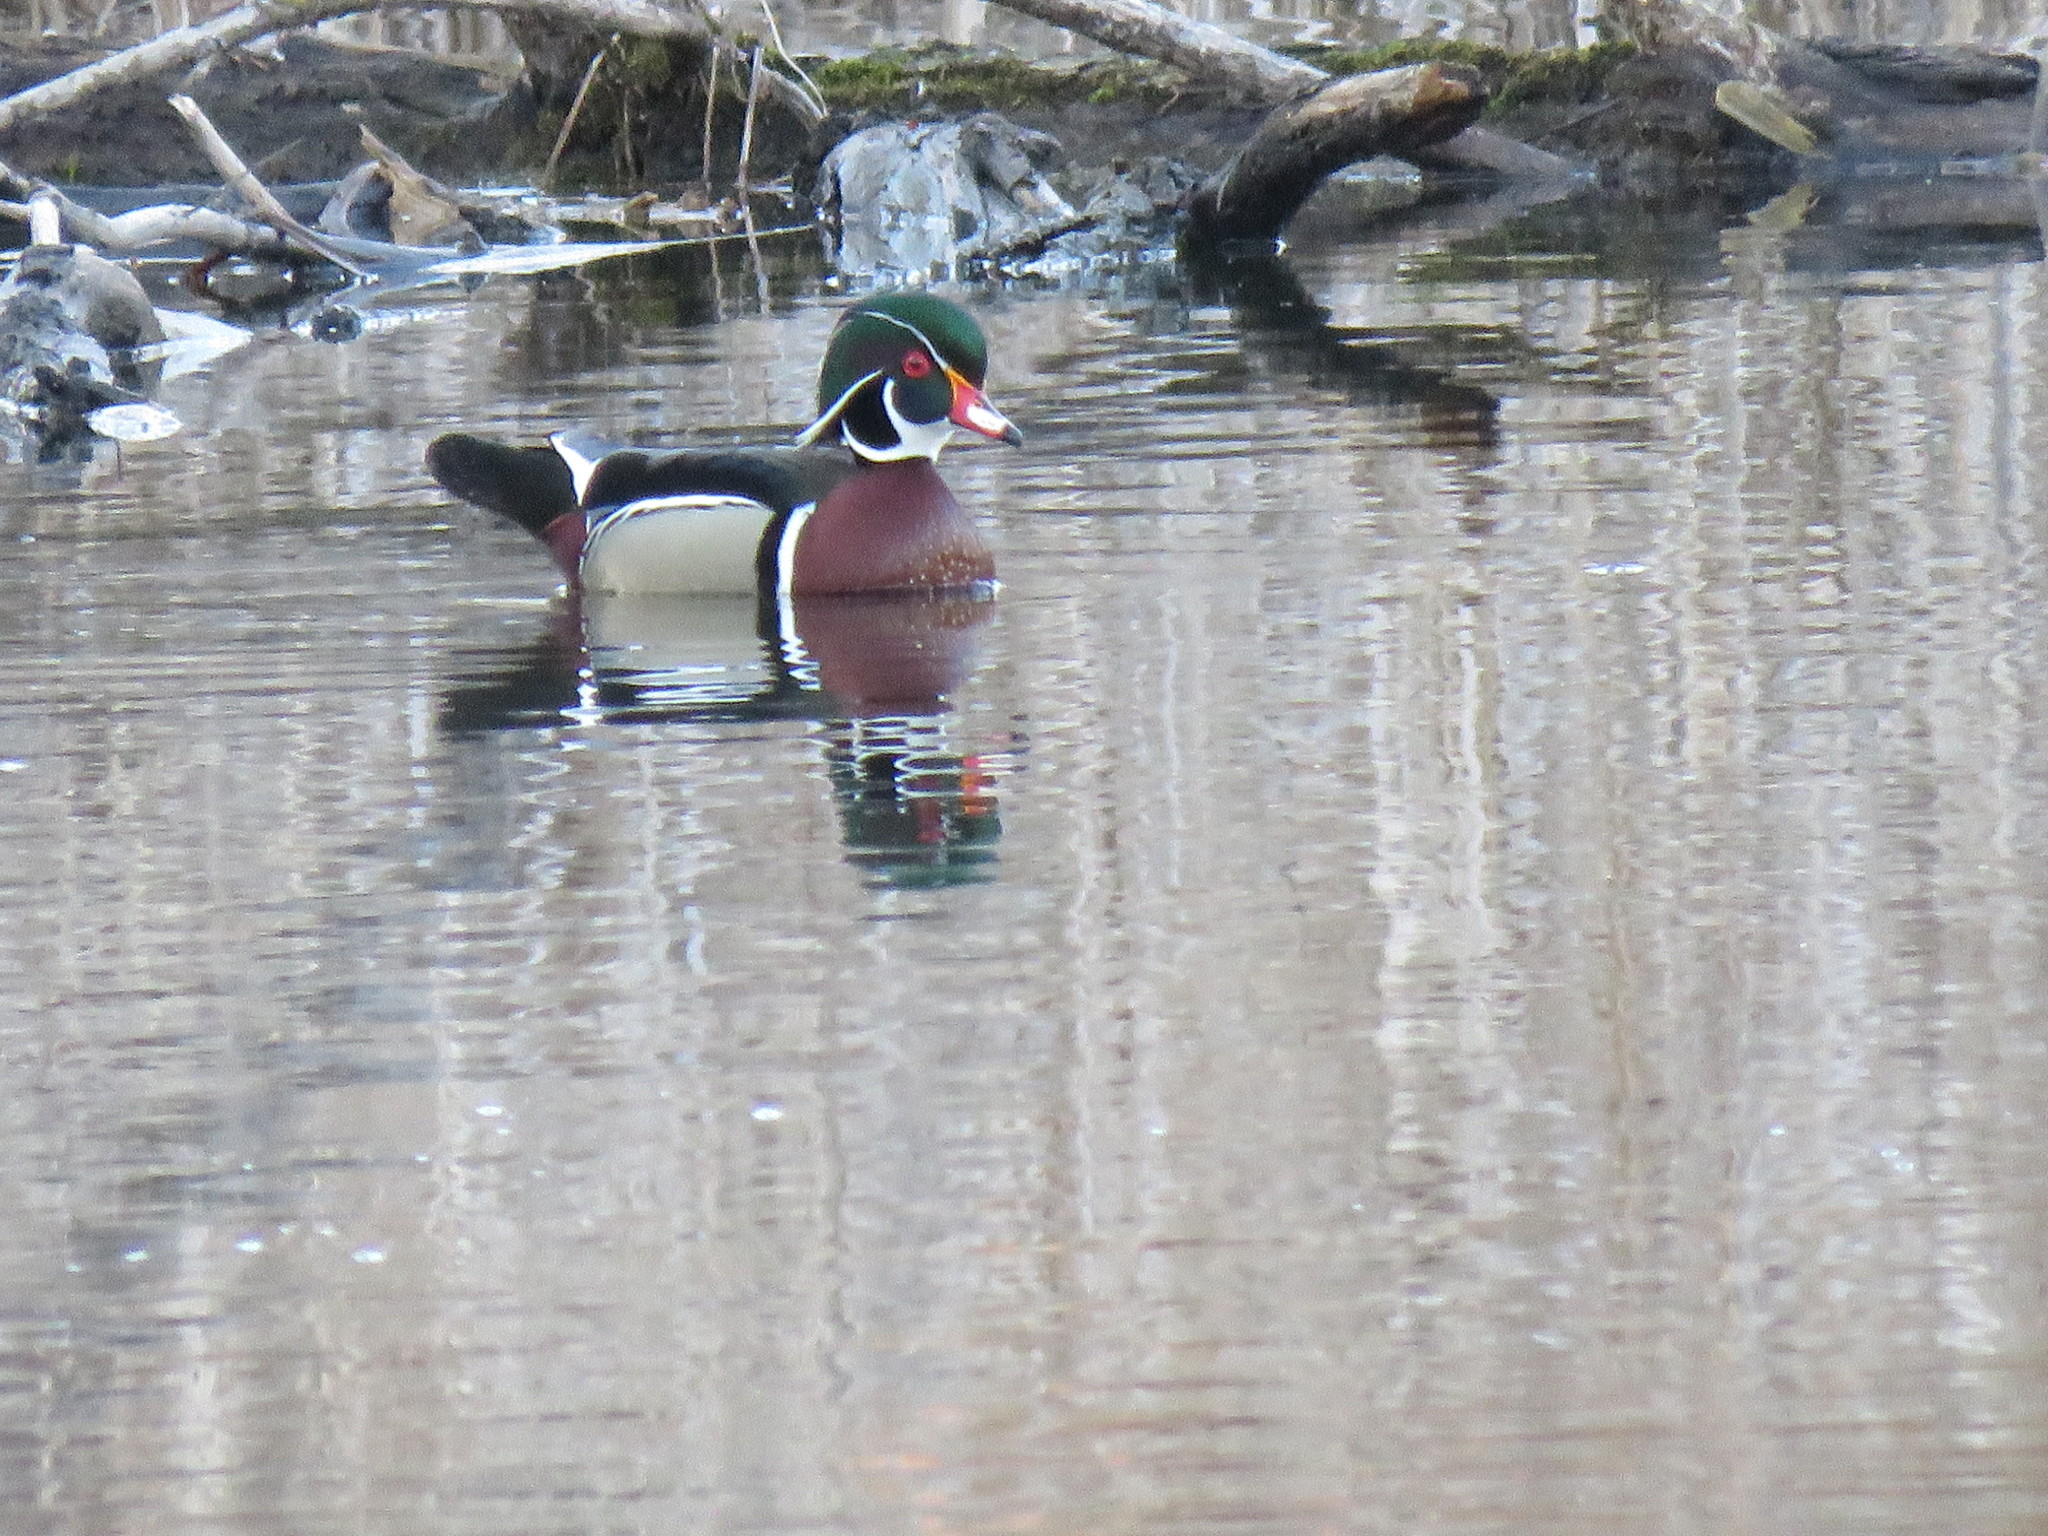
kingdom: Animalia
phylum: Chordata
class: Aves
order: Anseriformes
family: Anatidae
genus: Aix
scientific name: Aix sponsa
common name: Wood duck
